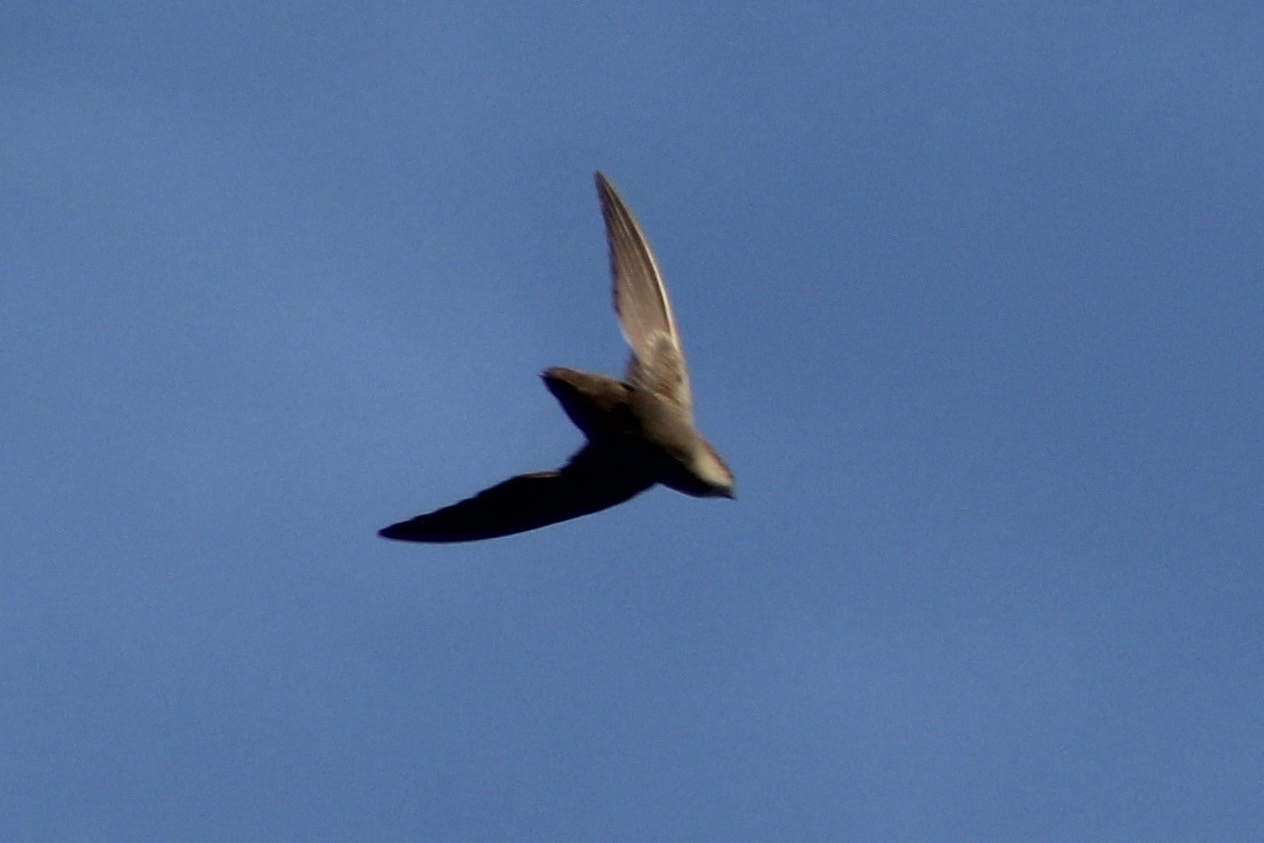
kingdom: Animalia
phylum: Chordata
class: Aves
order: Apodiformes
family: Apodidae
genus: Chaetura
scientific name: Chaetura pelagica
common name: Chimney swift
